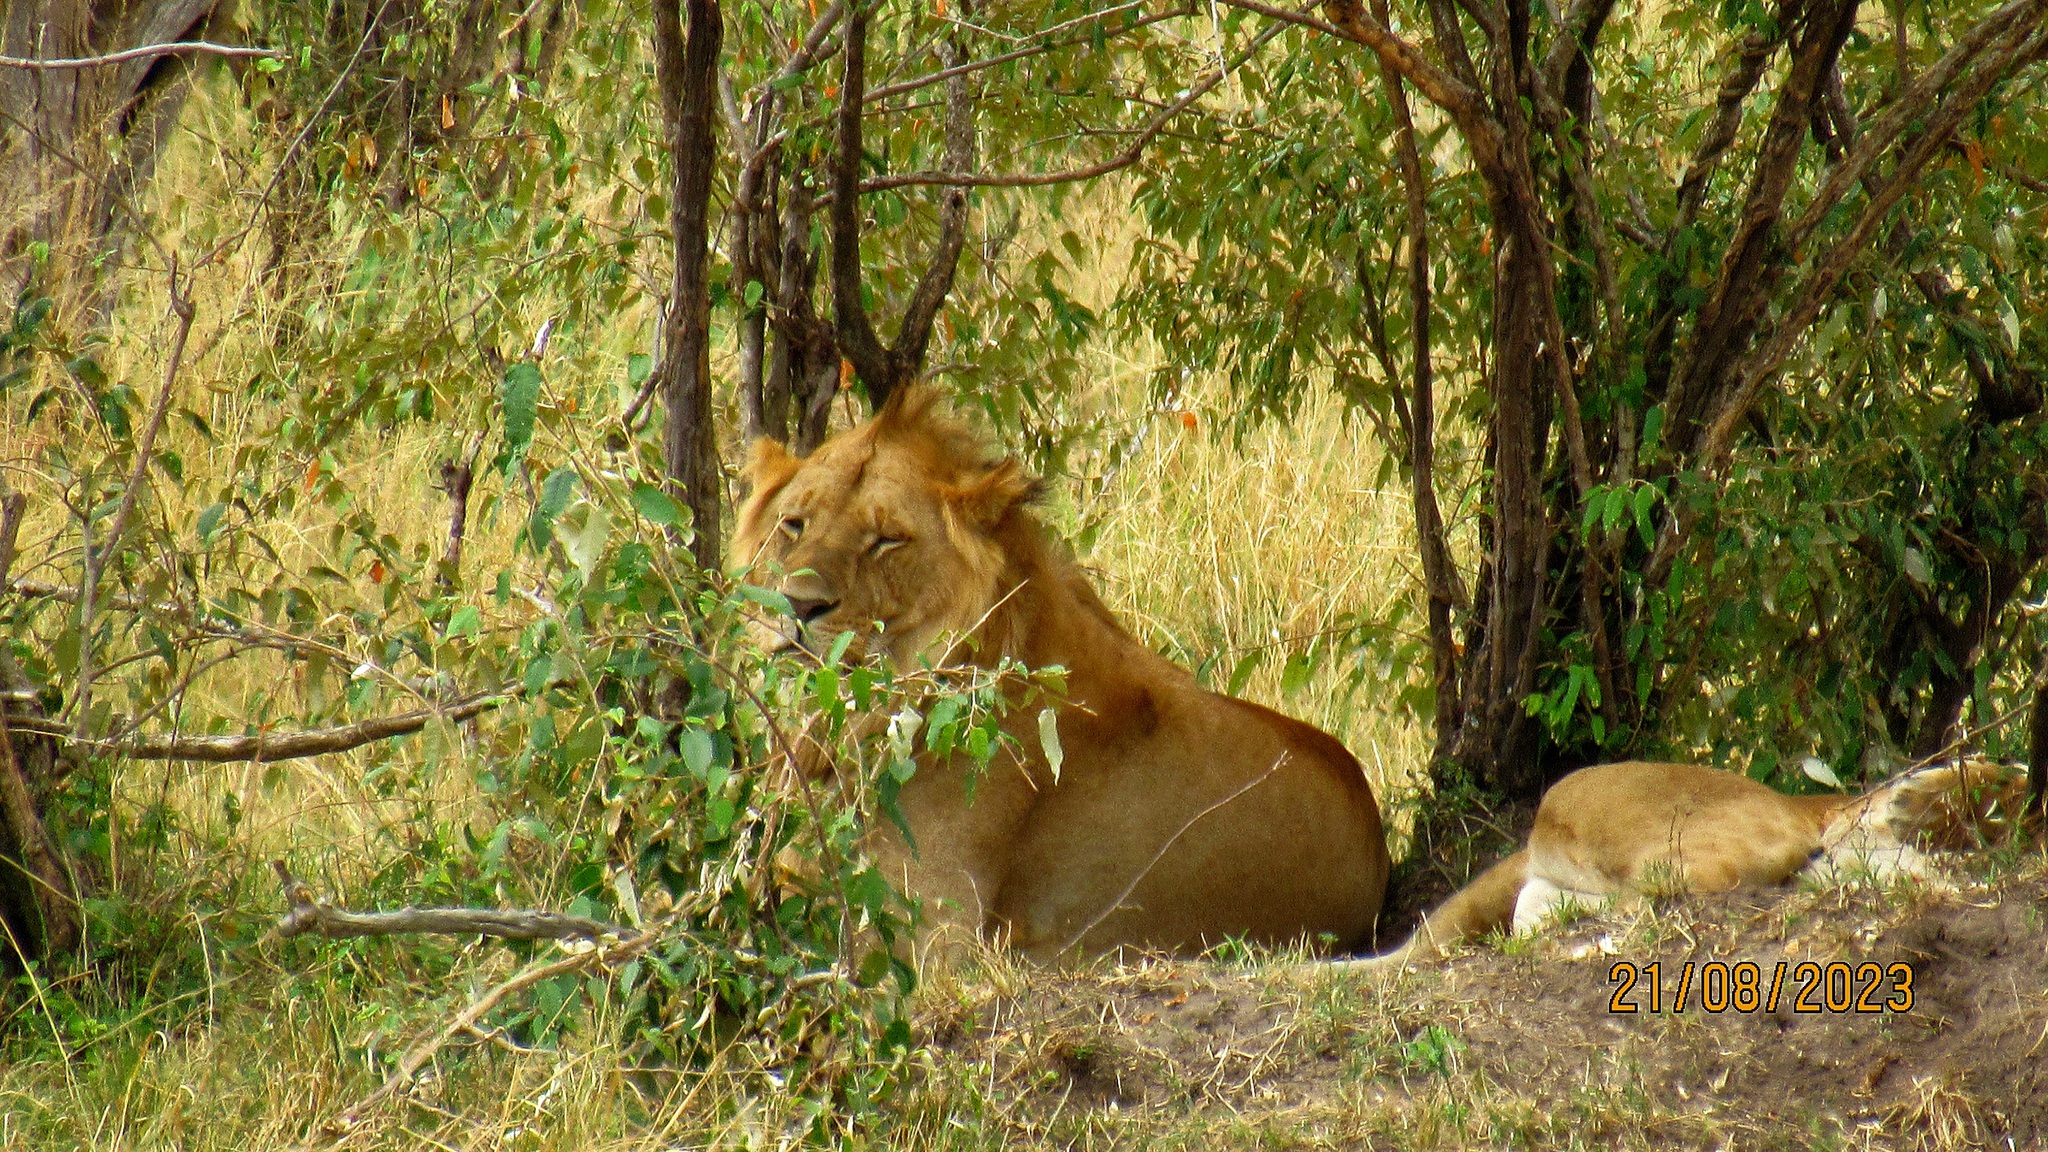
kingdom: Animalia
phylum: Chordata
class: Mammalia
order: Carnivora
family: Felidae
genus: Panthera
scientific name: Panthera leo
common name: Lion
